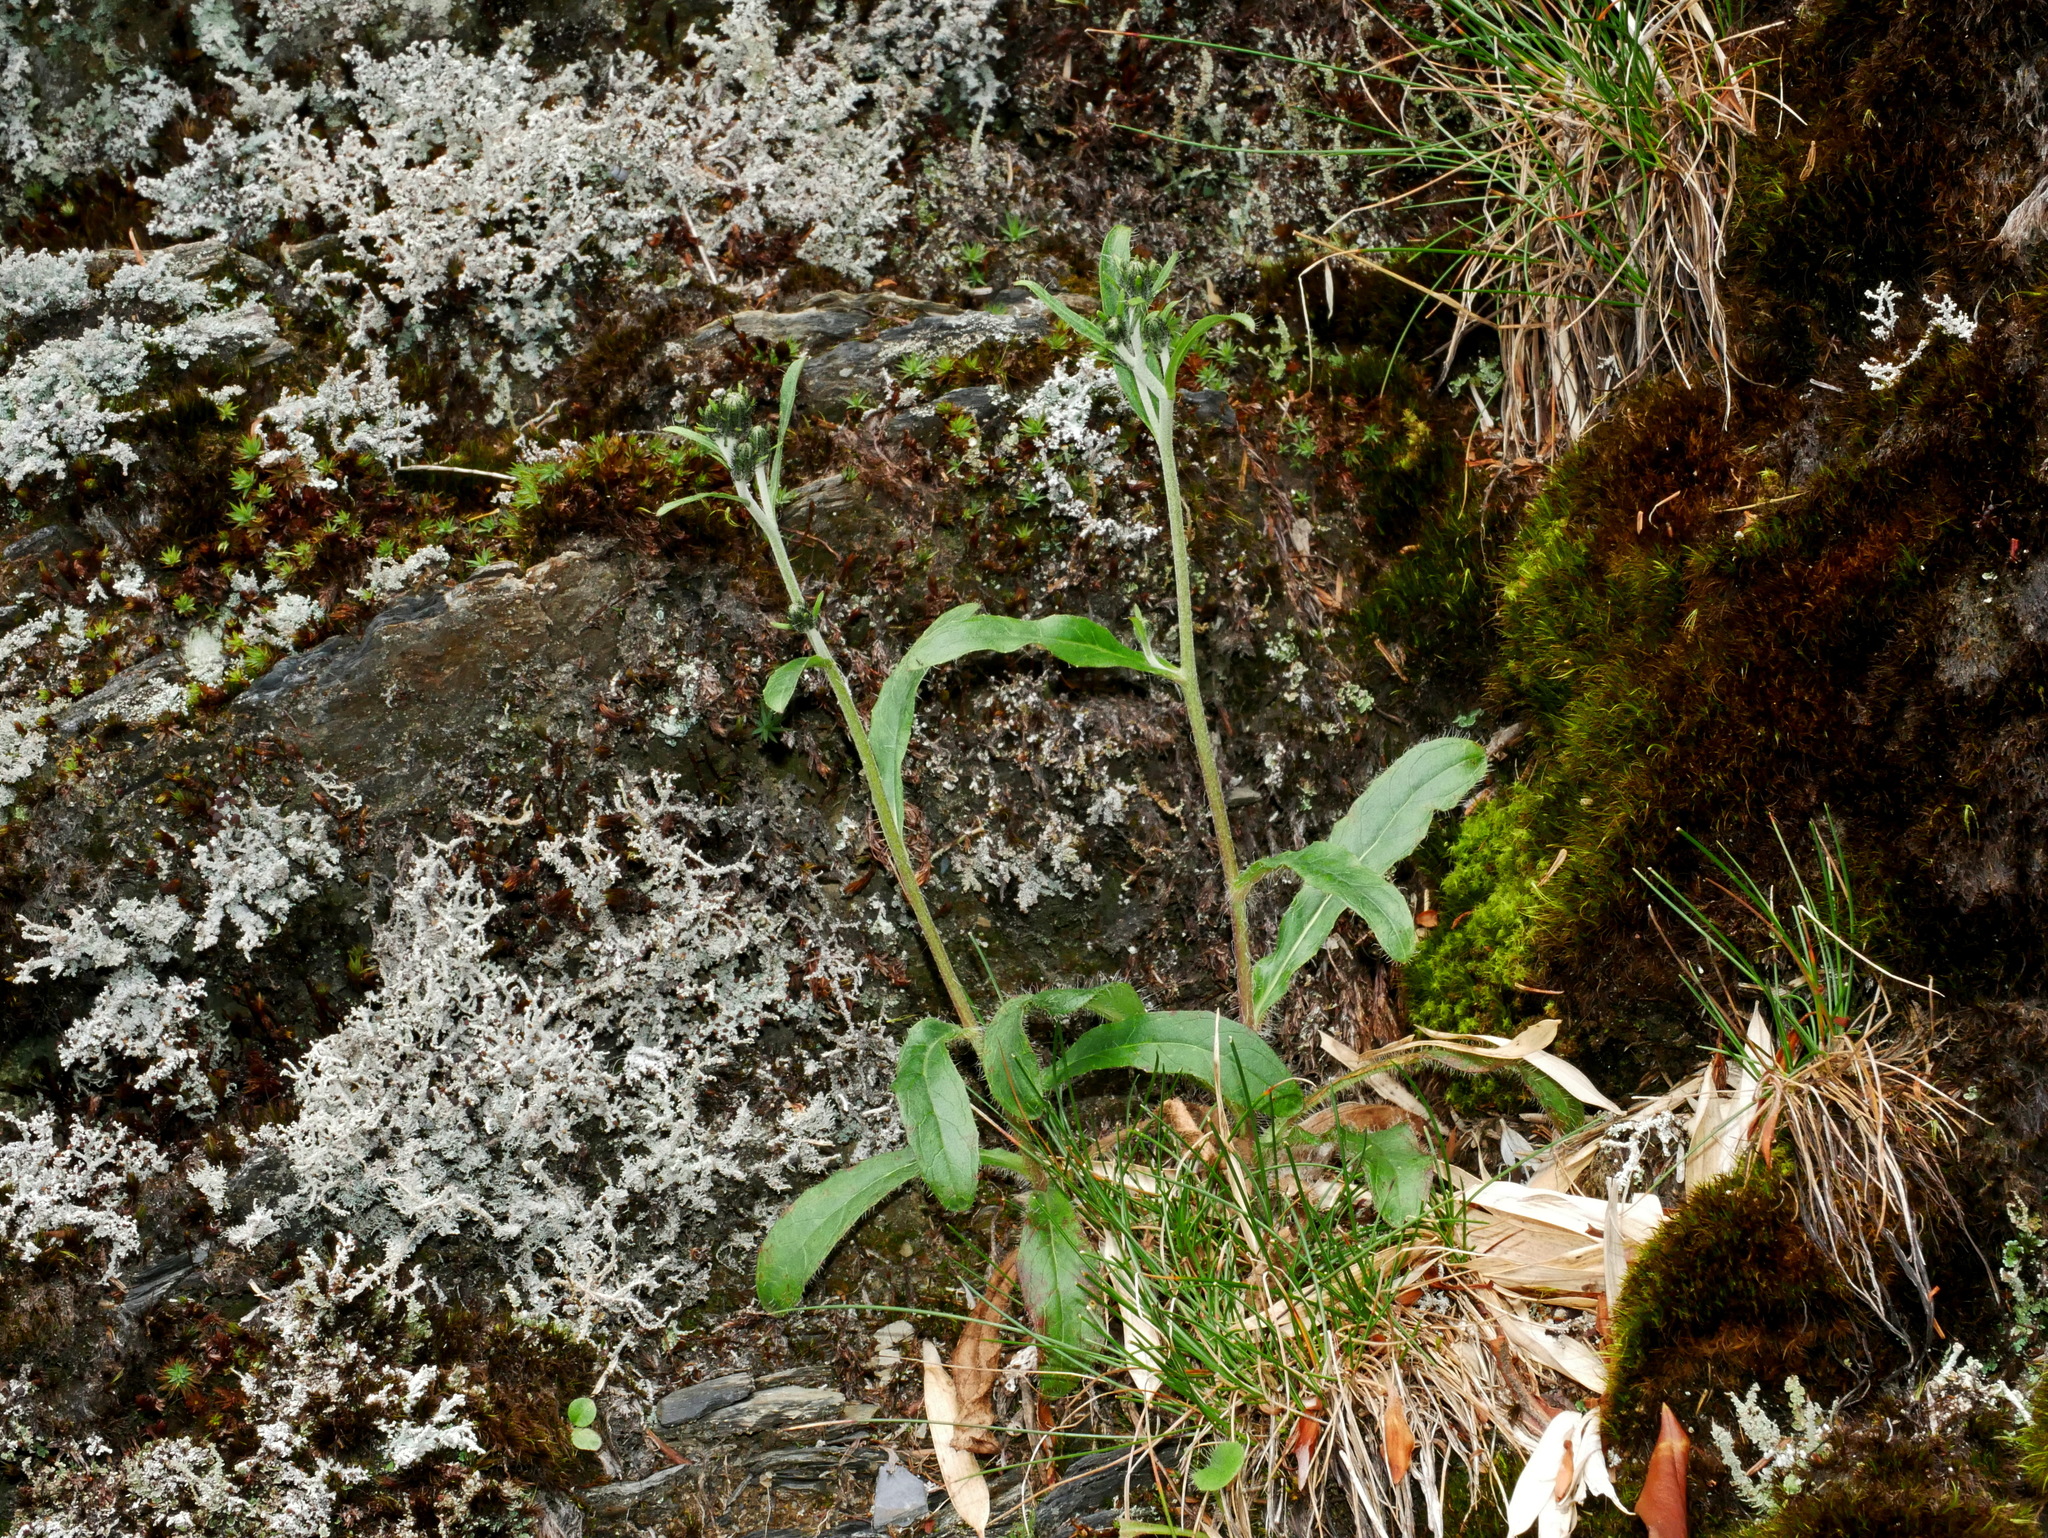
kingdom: Plantae
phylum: Tracheophyta
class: Magnoliopsida
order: Asterales
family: Asteraceae
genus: Hieracium
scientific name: Hieracium morii
